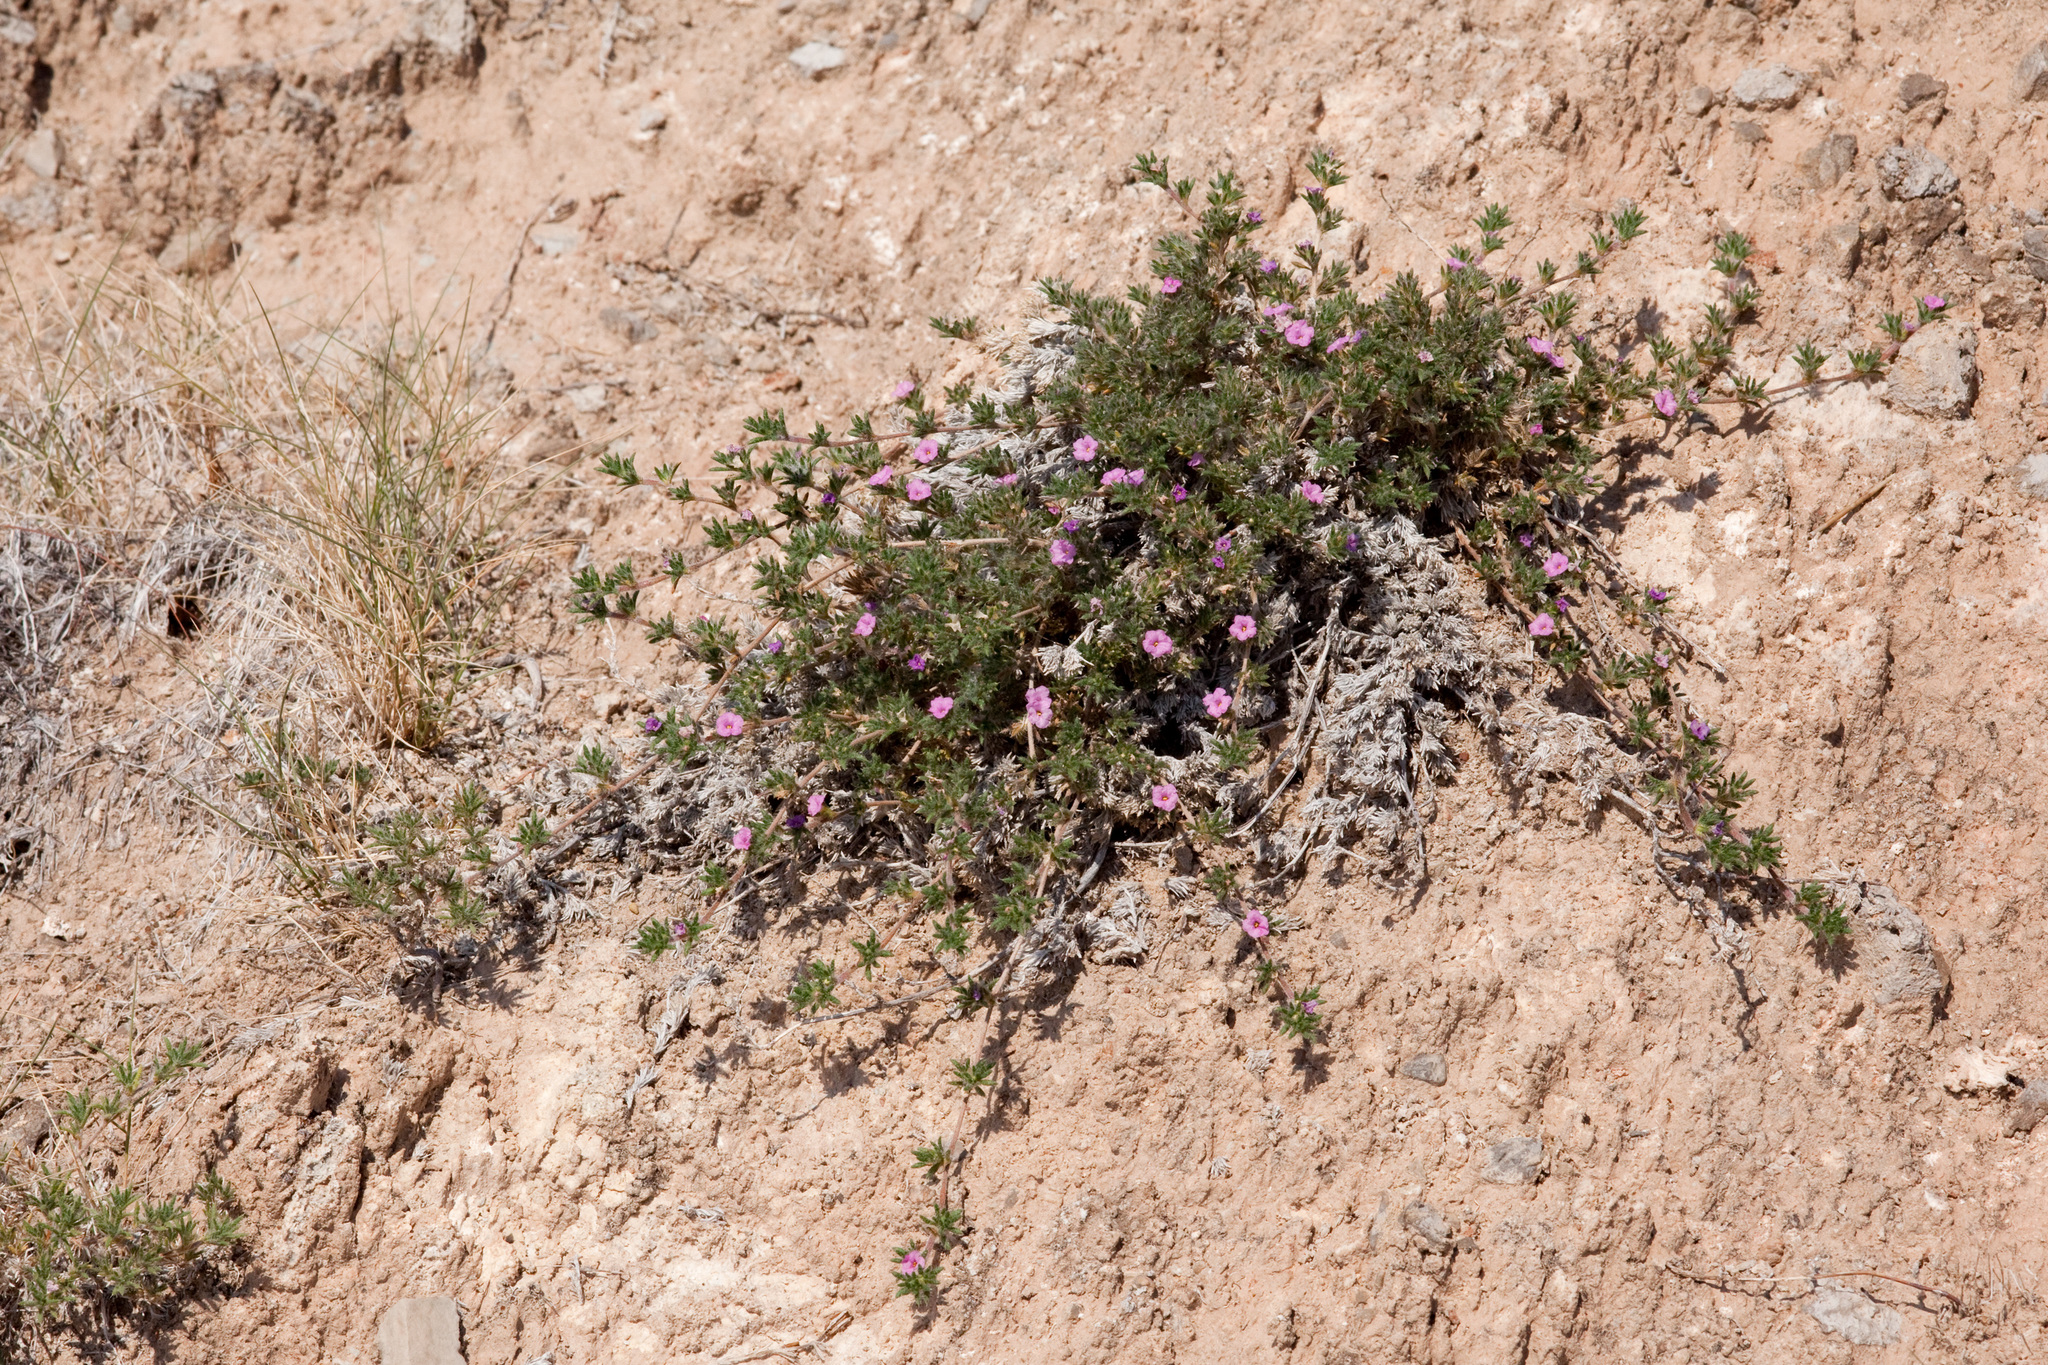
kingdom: Plantae
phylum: Tracheophyta
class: Magnoliopsida
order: Boraginales
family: Ehretiaceae
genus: Tiquilia
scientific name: Tiquilia hispidissima
